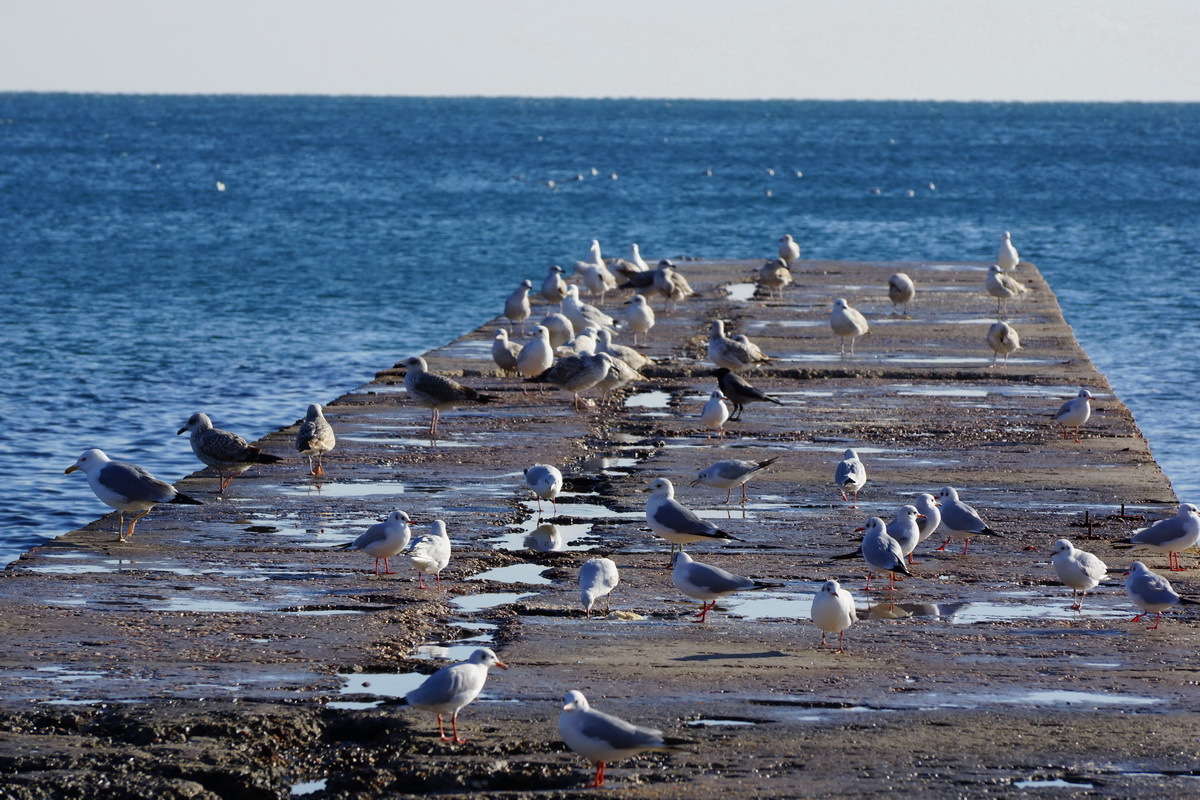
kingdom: Animalia
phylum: Chordata
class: Aves
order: Passeriformes
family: Corvidae
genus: Corvus
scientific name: Corvus cornix
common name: Hooded crow
